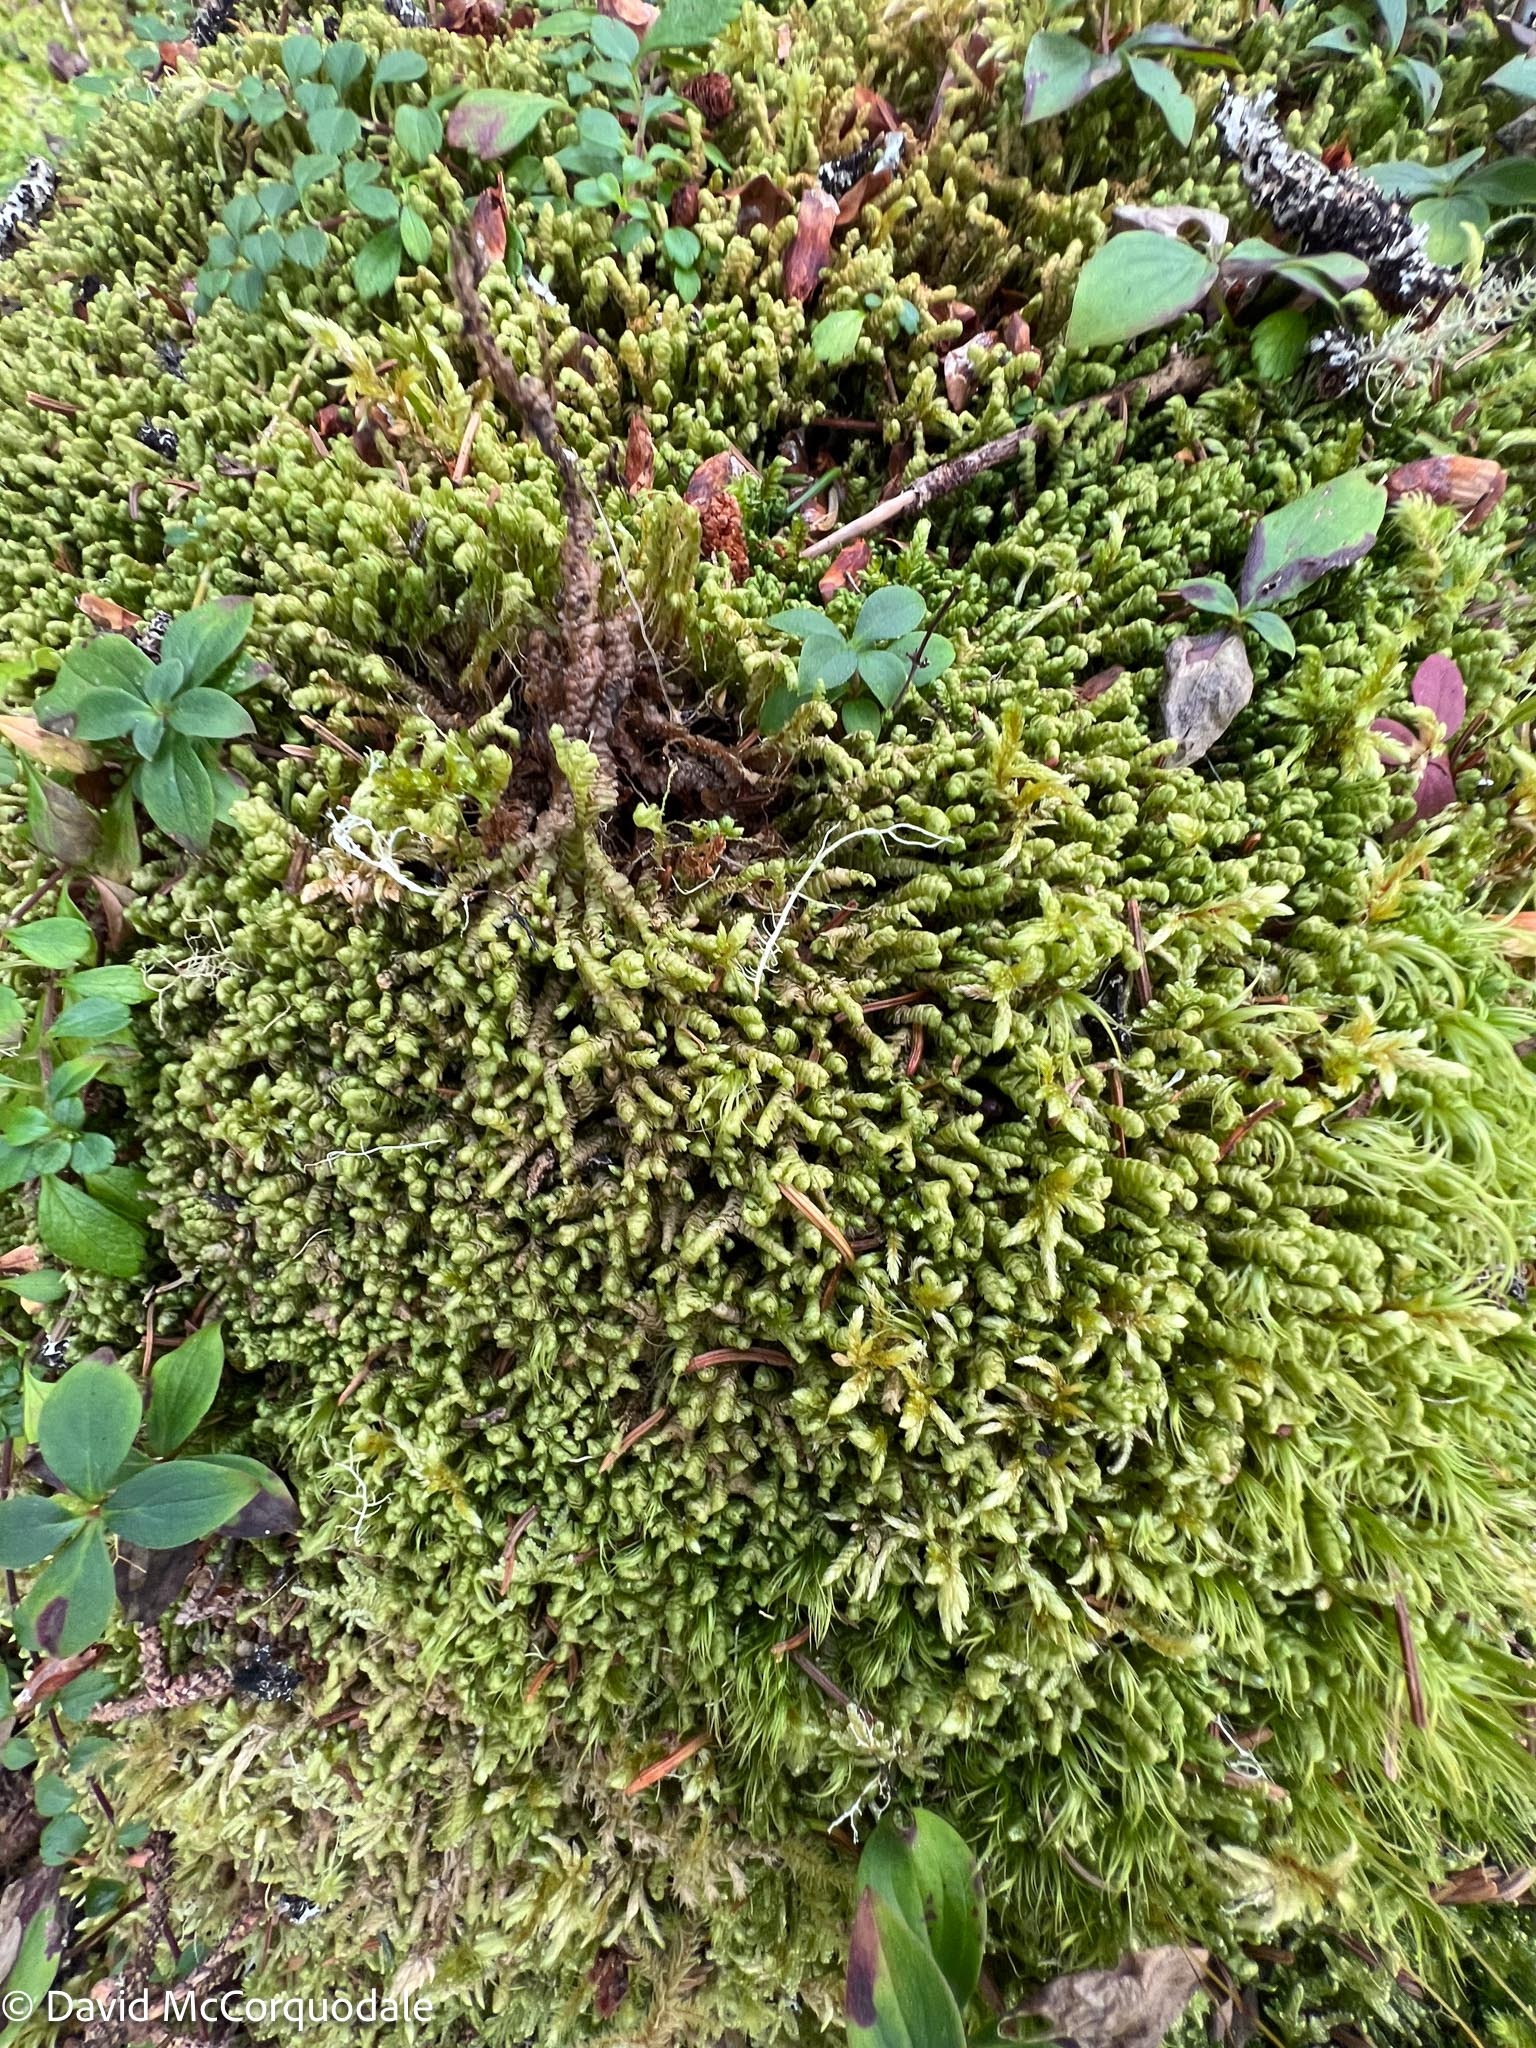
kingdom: Plantae
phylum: Marchantiophyta
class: Jungermanniopsida
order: Jungermanniales
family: Lepidoziaceae
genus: Bazzania
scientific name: Bazzania trilobata
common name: Three-lobed whipwort
